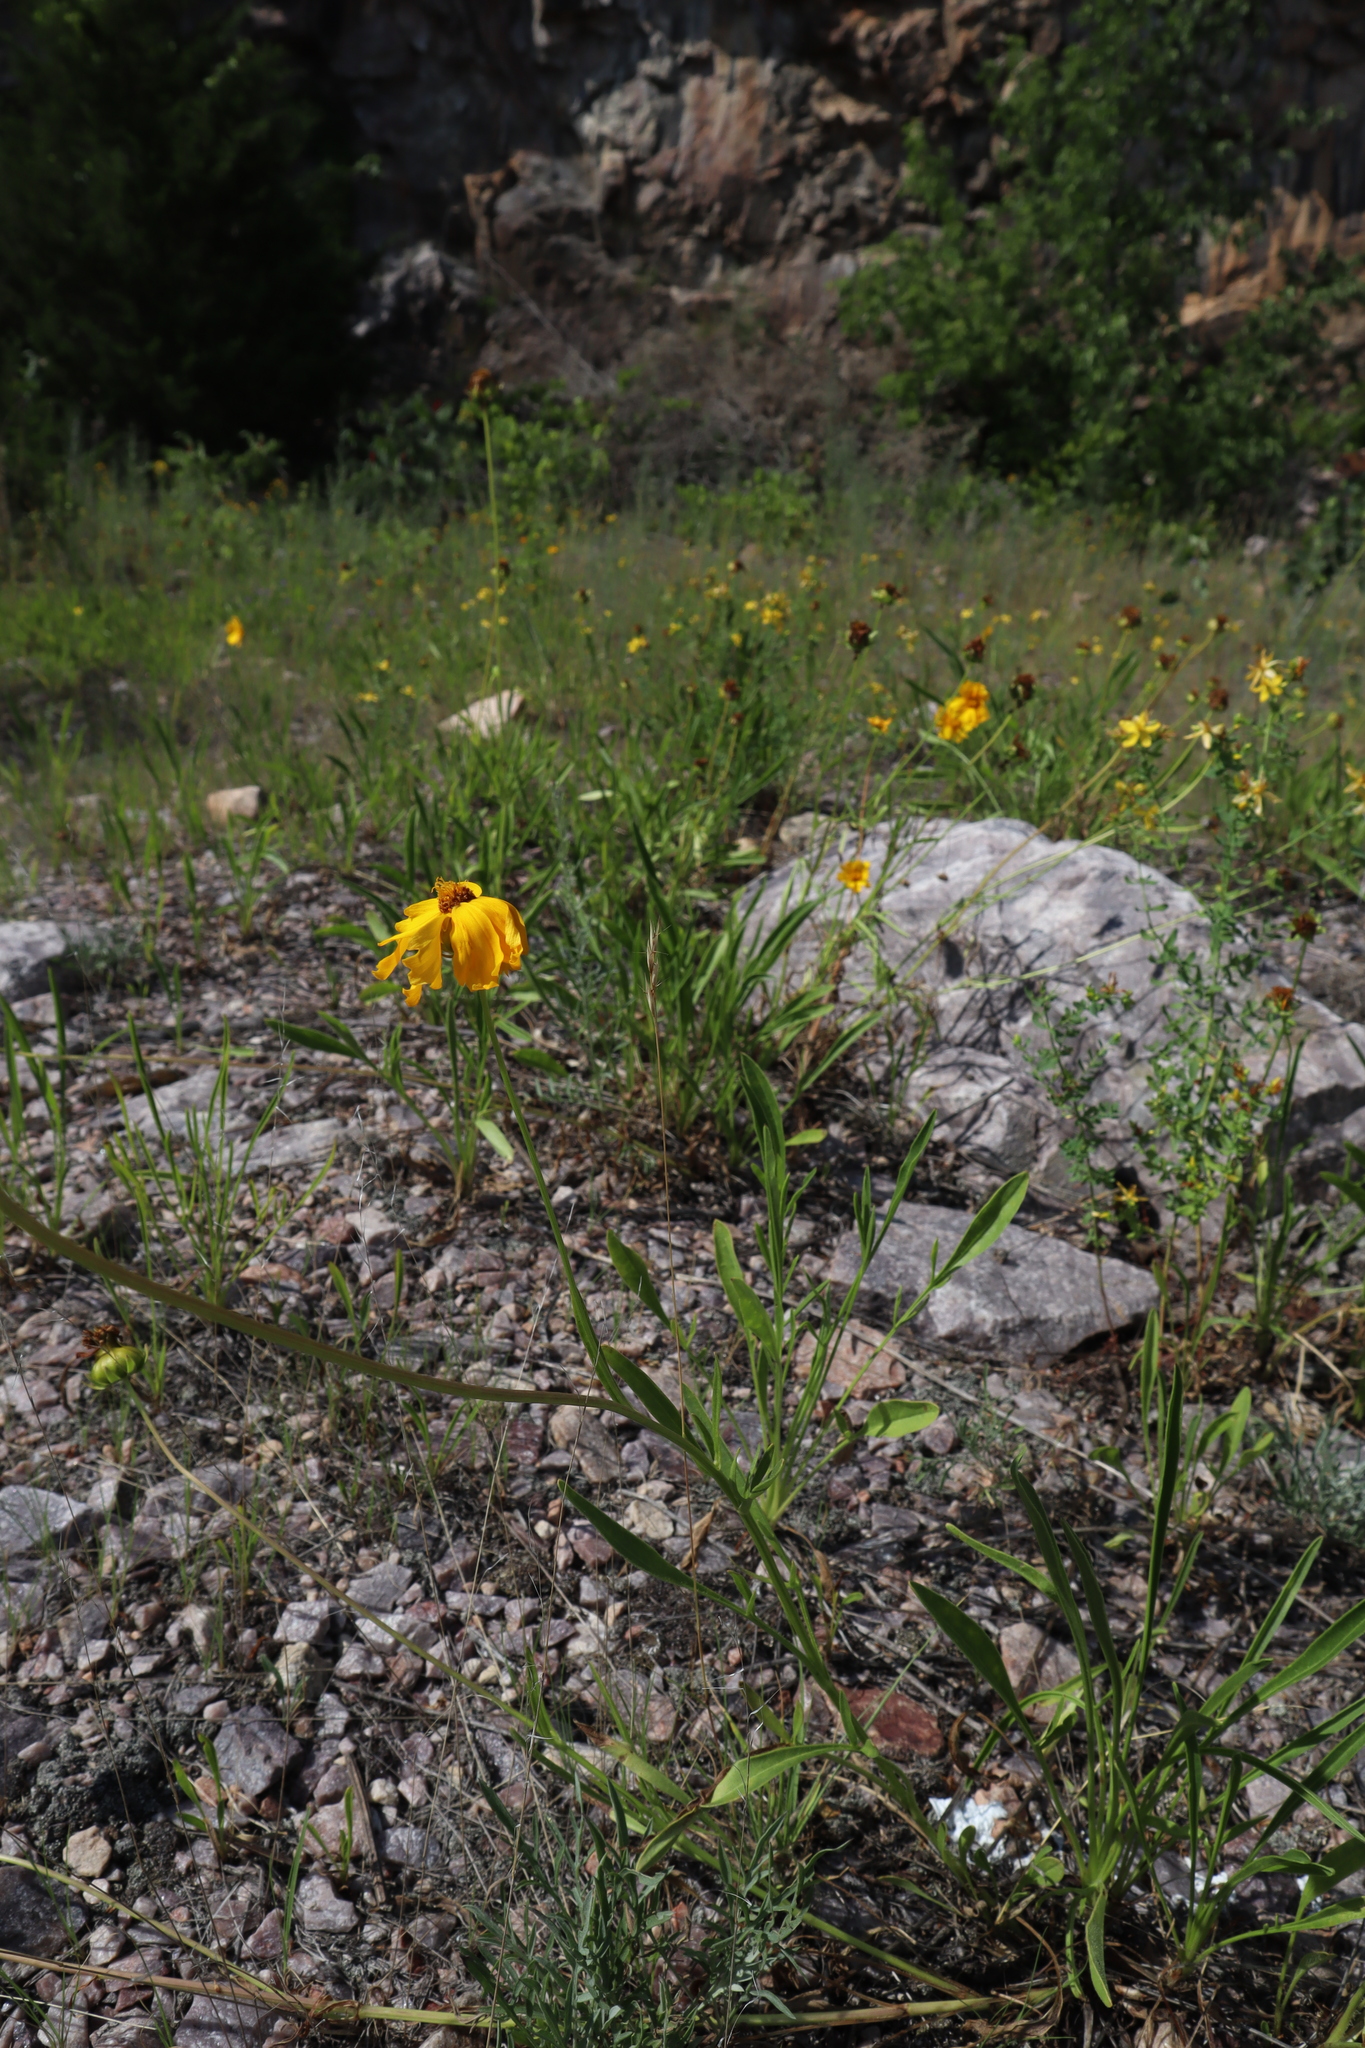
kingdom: Plantae
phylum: Tracheophyta
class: Magnoliopsida
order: Asterales
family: Asteraceae
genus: Coreopsis
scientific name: Coreopsis lanceolata
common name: Garden coreopsis
